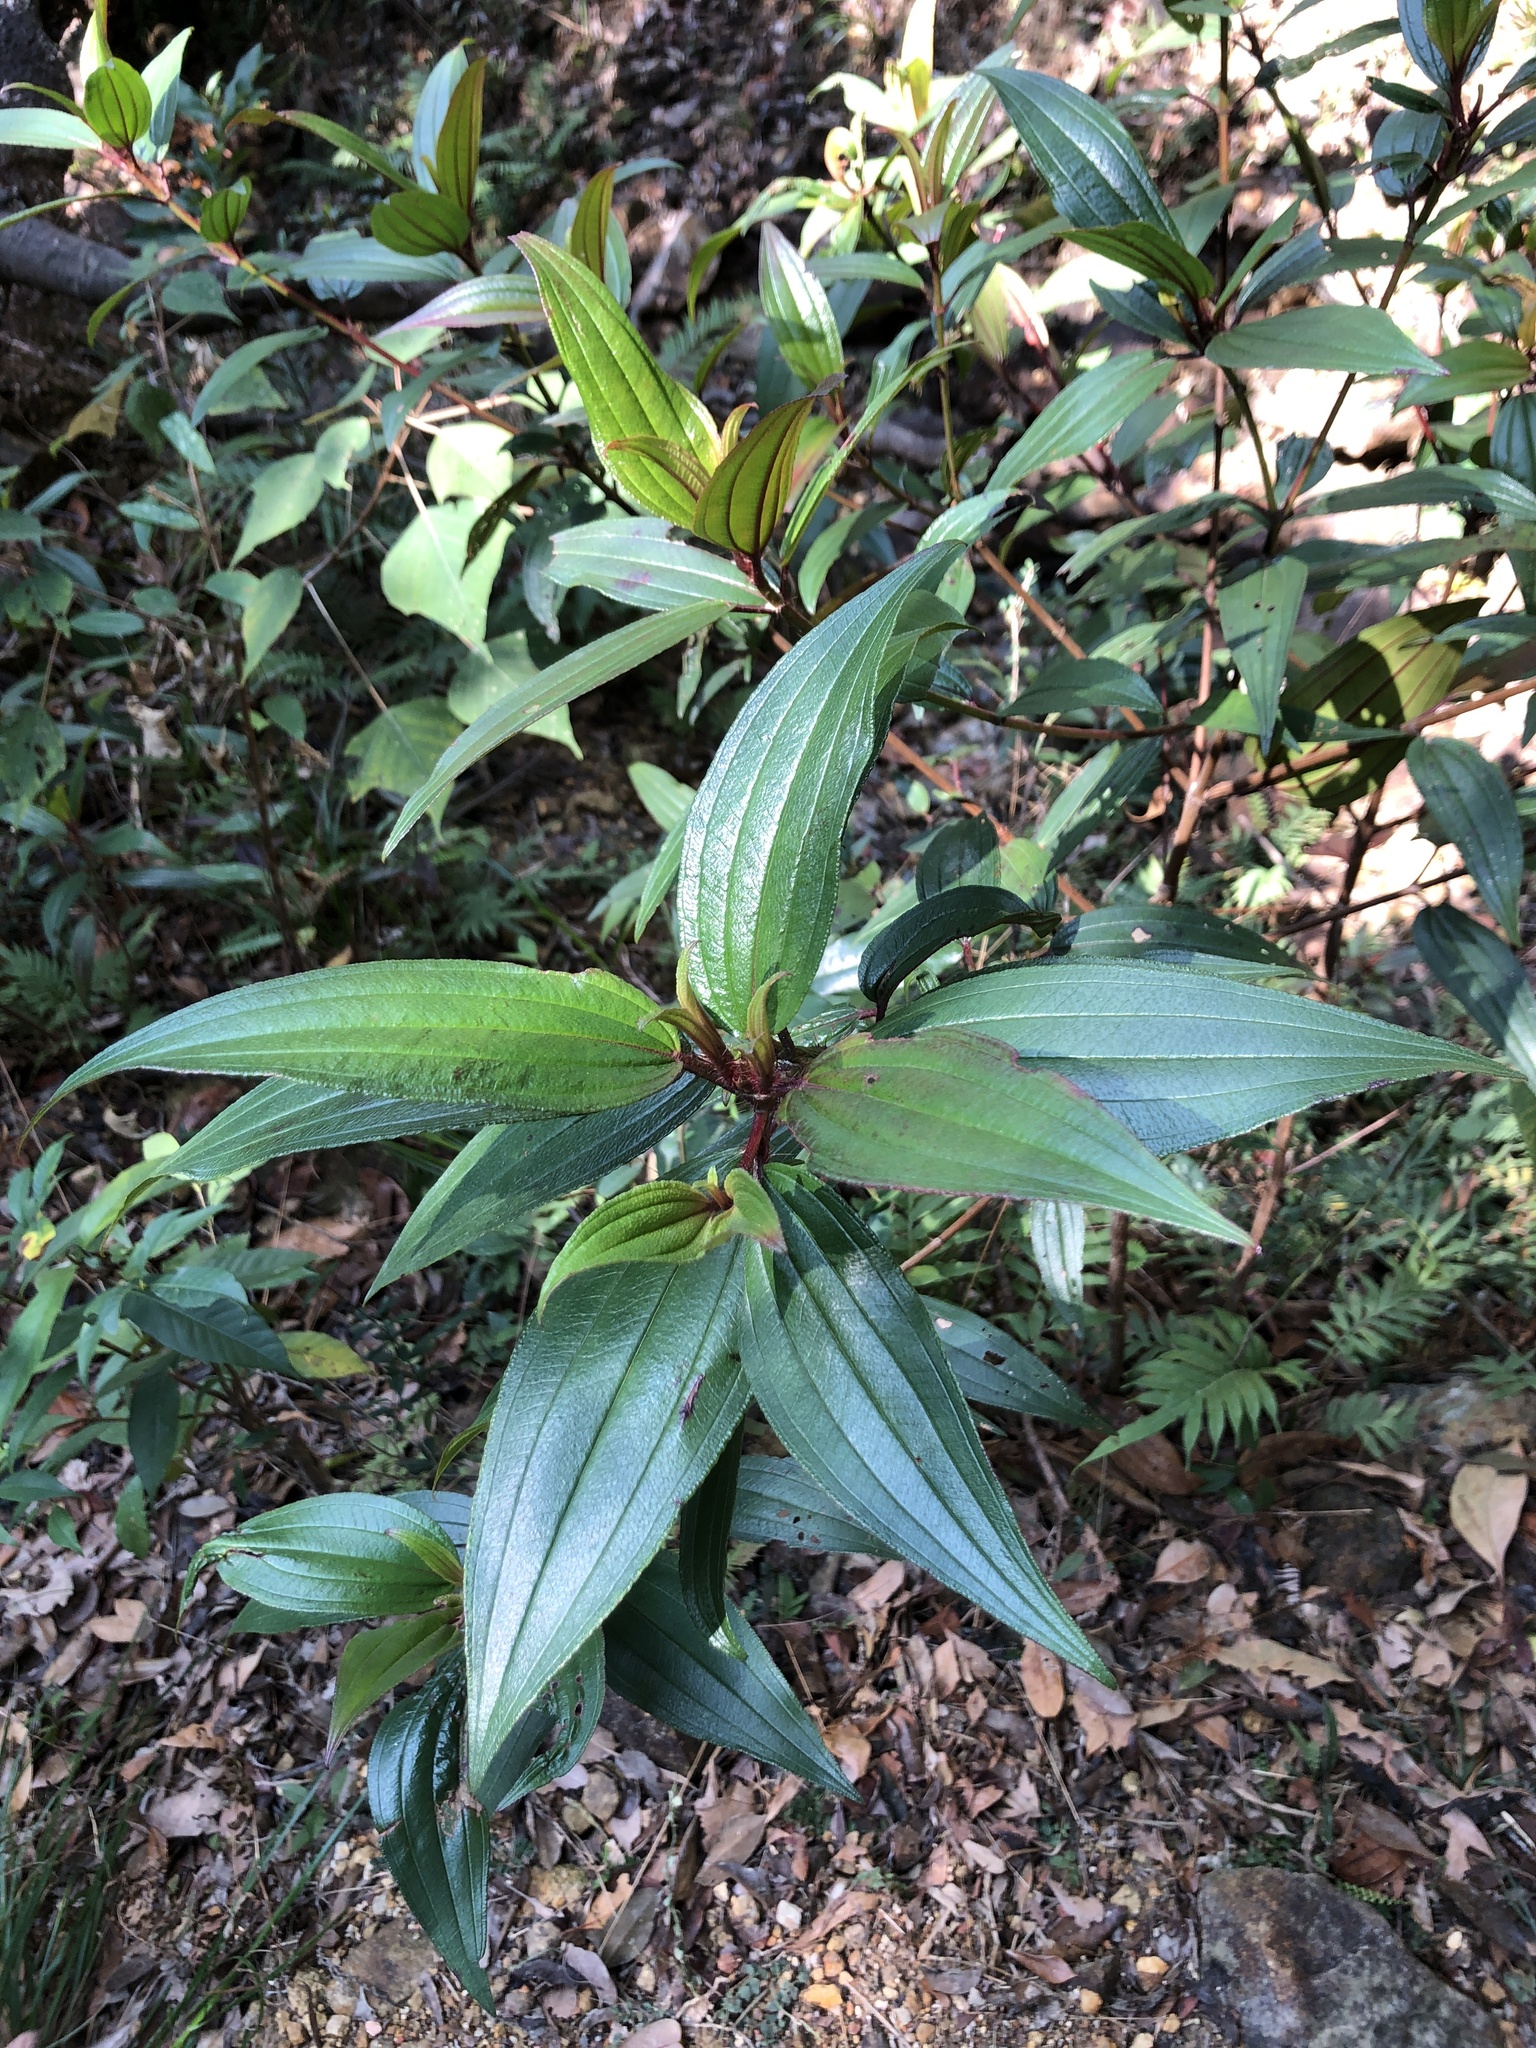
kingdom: Plantae
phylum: Tracheophyta
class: Magnoliopsida
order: Myrtales
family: Melastomataceae
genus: Melastoma
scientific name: Melastoma sanguineum
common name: Red melastome
